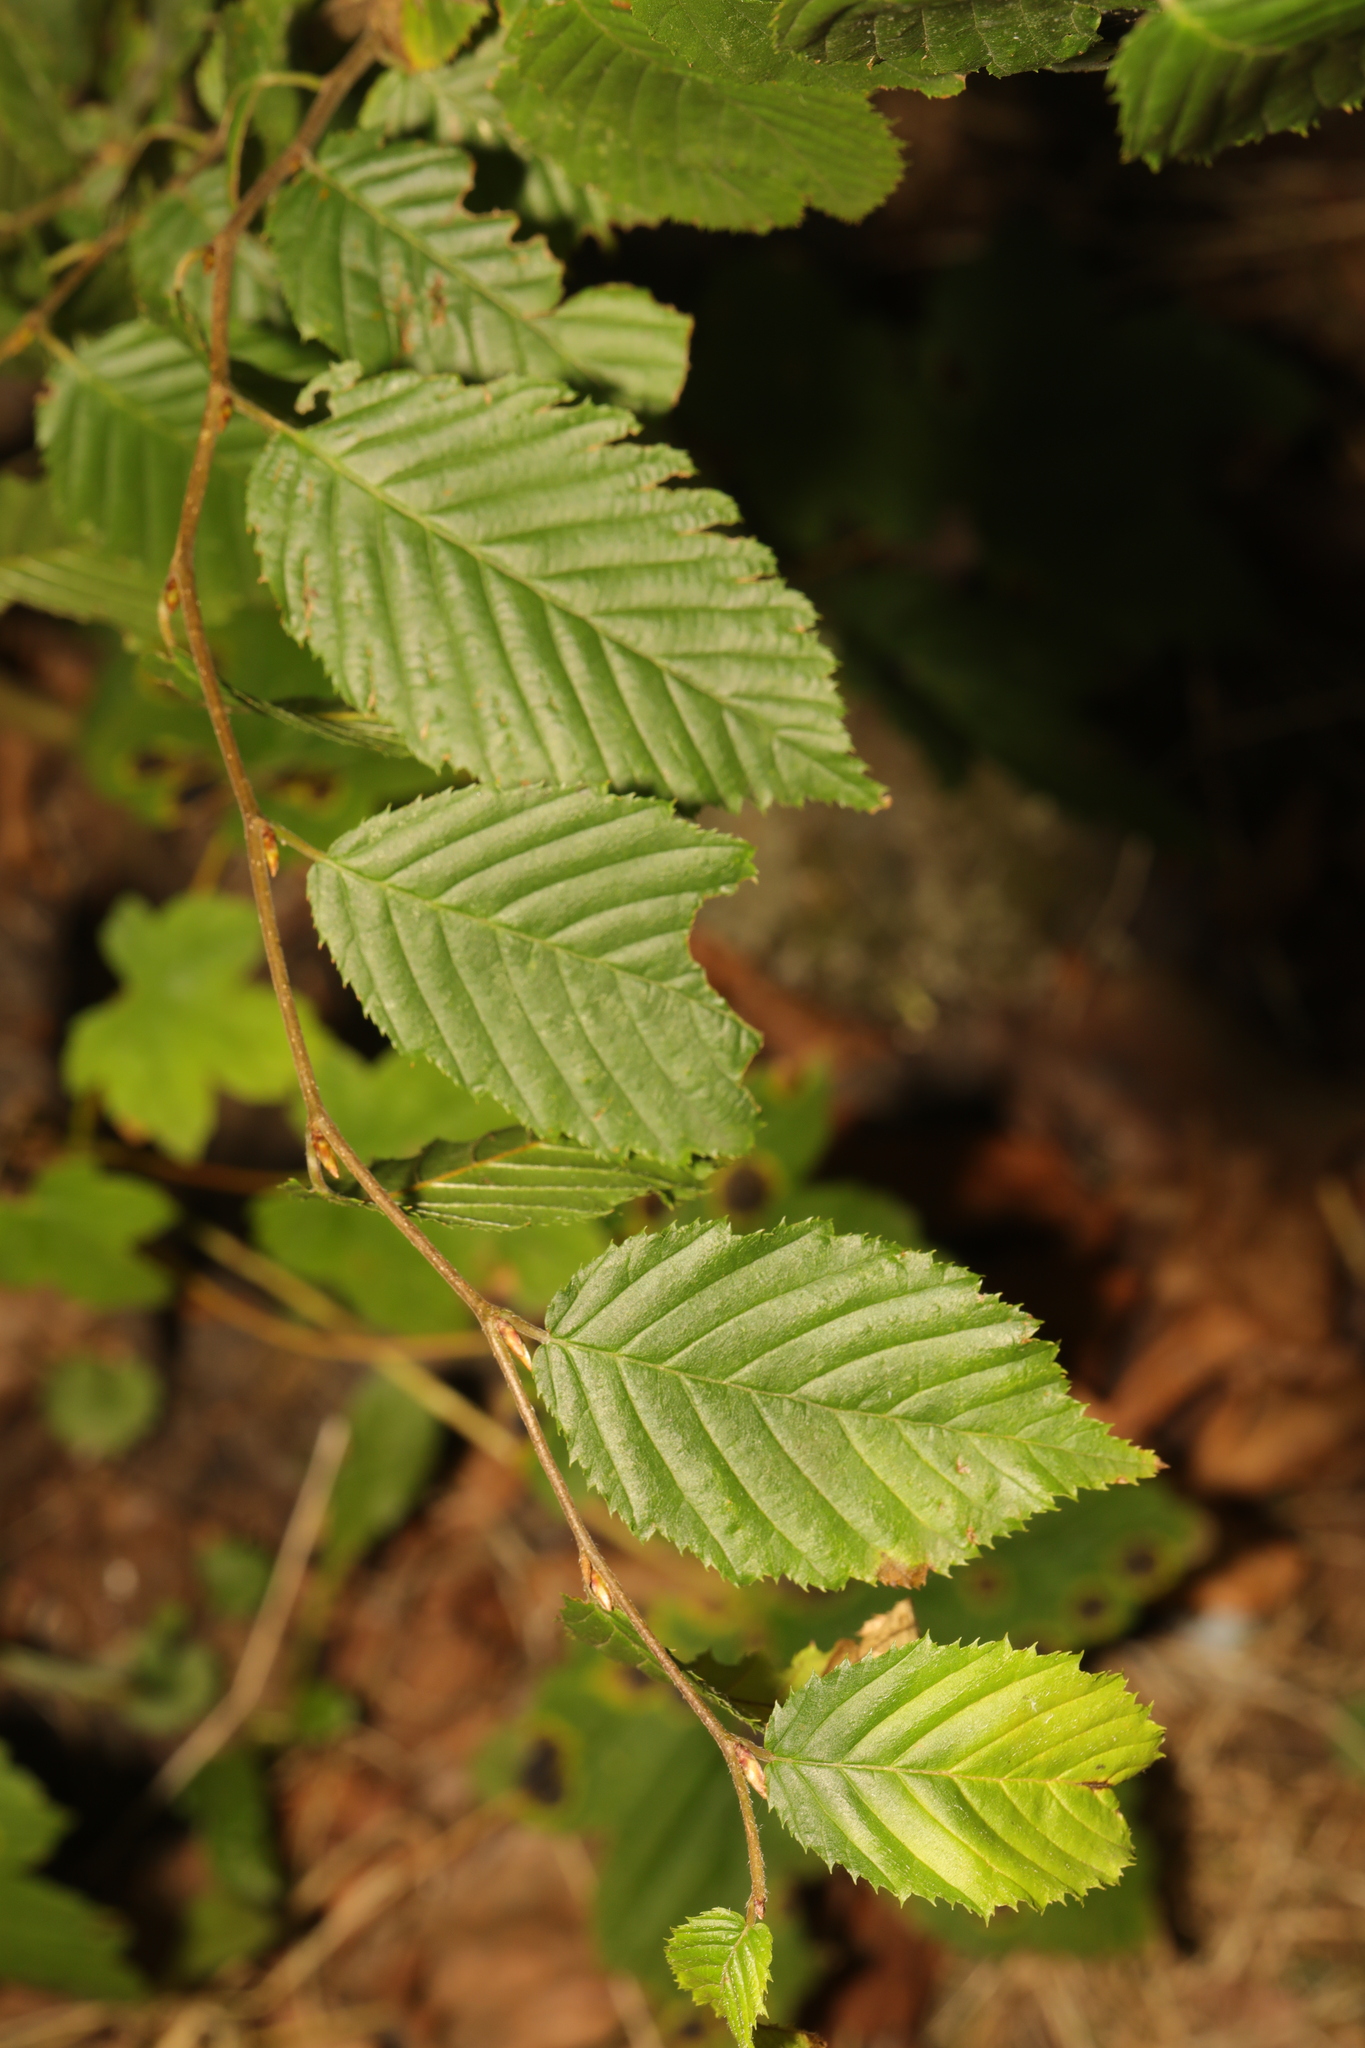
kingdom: Plantae
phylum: Tracheophyta
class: Magnoliopsida
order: Fagales
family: Betulaceae
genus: Carpinus
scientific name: Carpinus betulus
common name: Hornbeam
